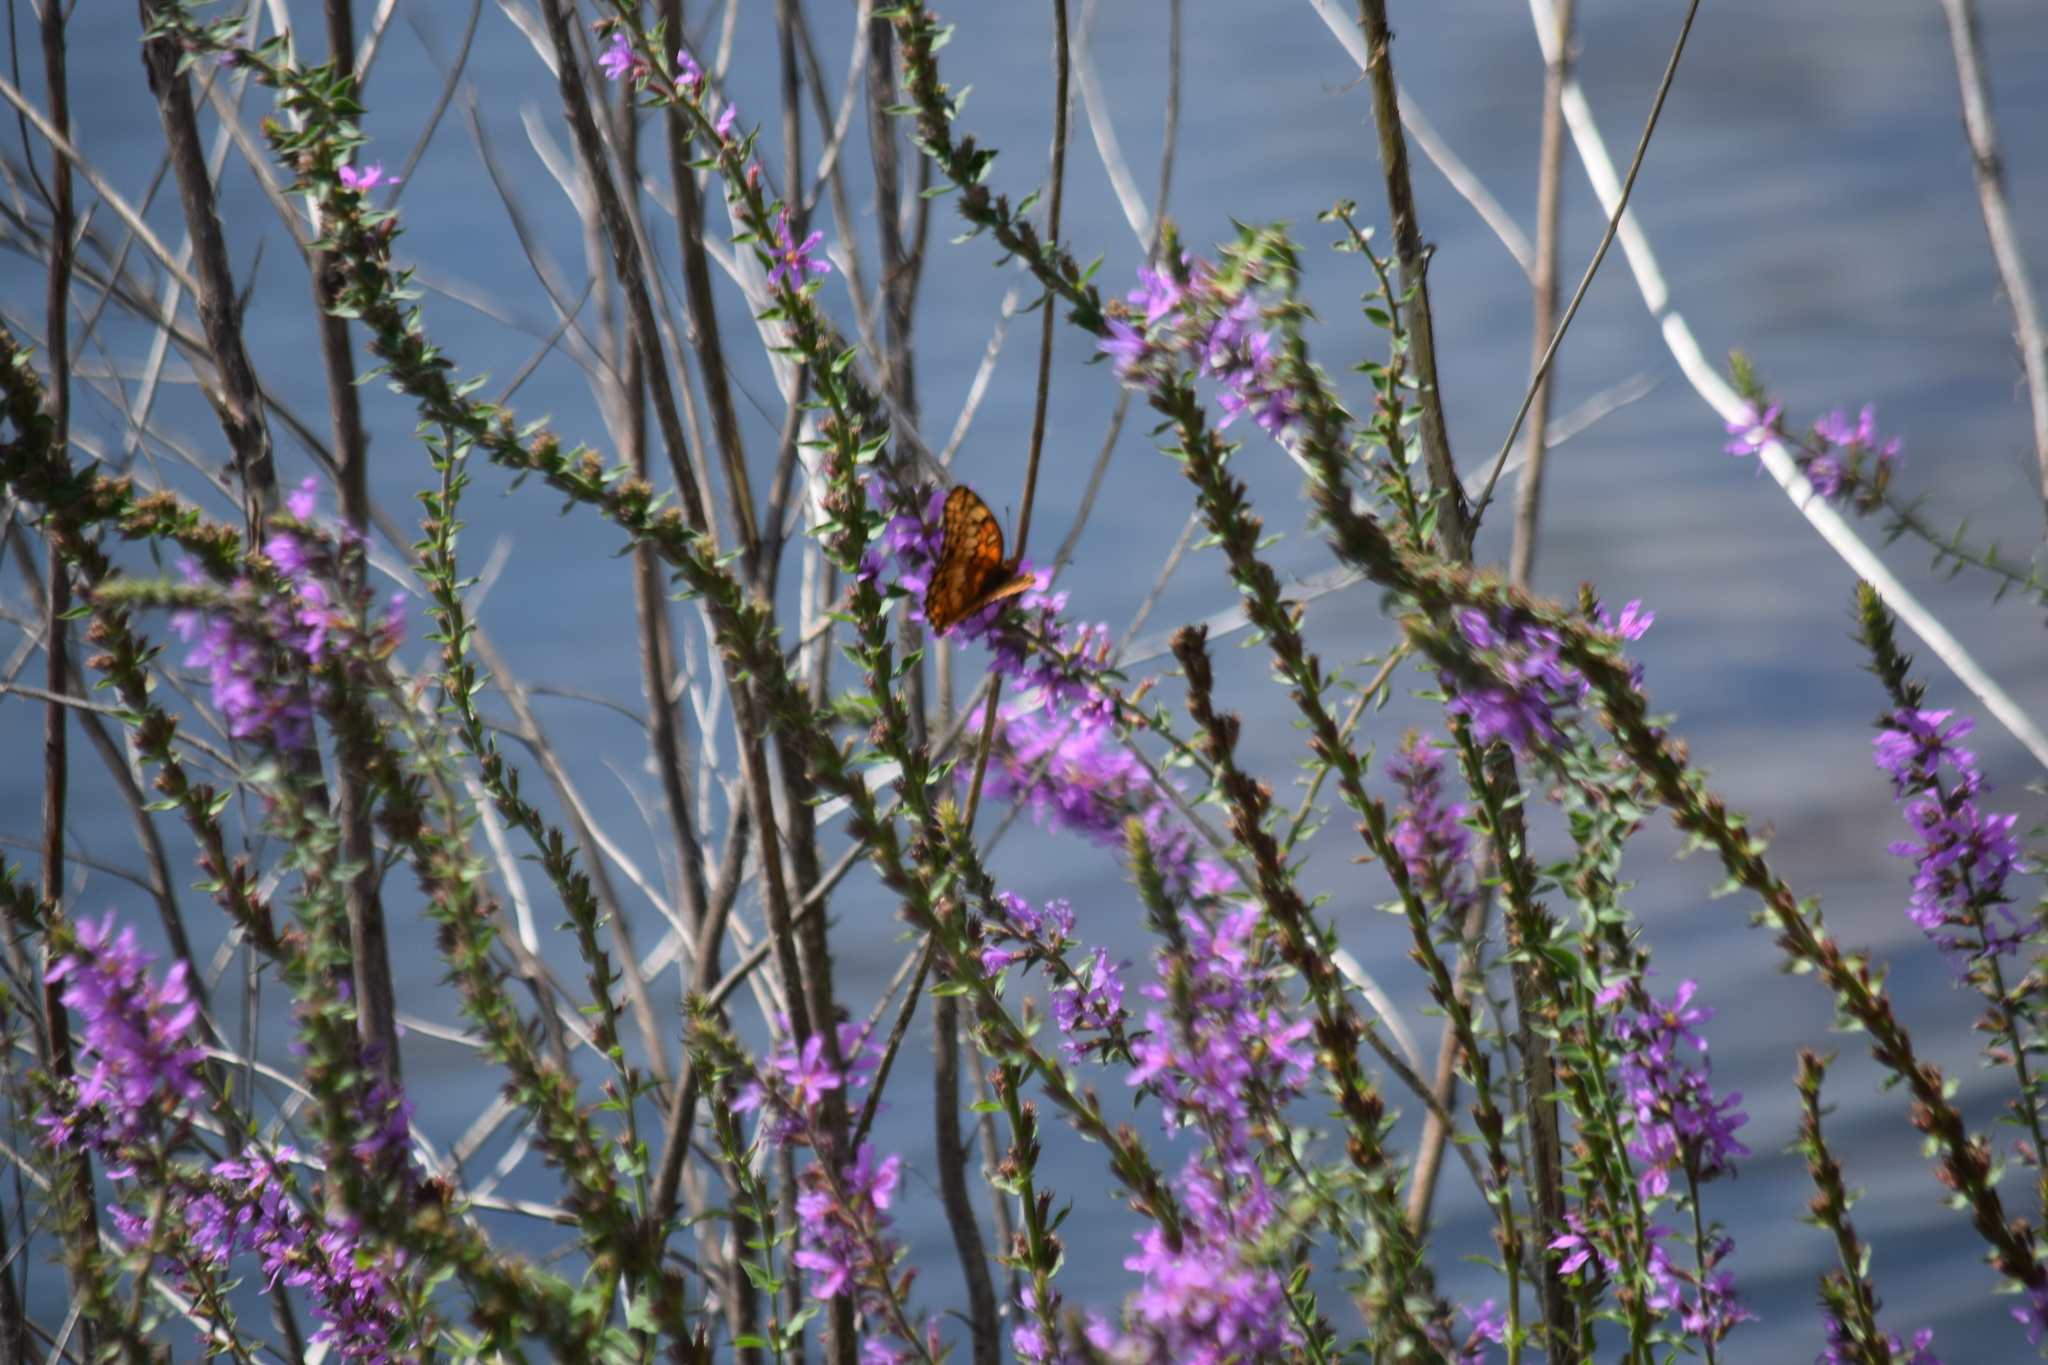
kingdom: Animalia
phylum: Arthropoda
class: Insecta
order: Lepidoptera
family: Nymphalidae
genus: Euptoieta
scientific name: Euptoieta claudia
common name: Variegated fritillary
